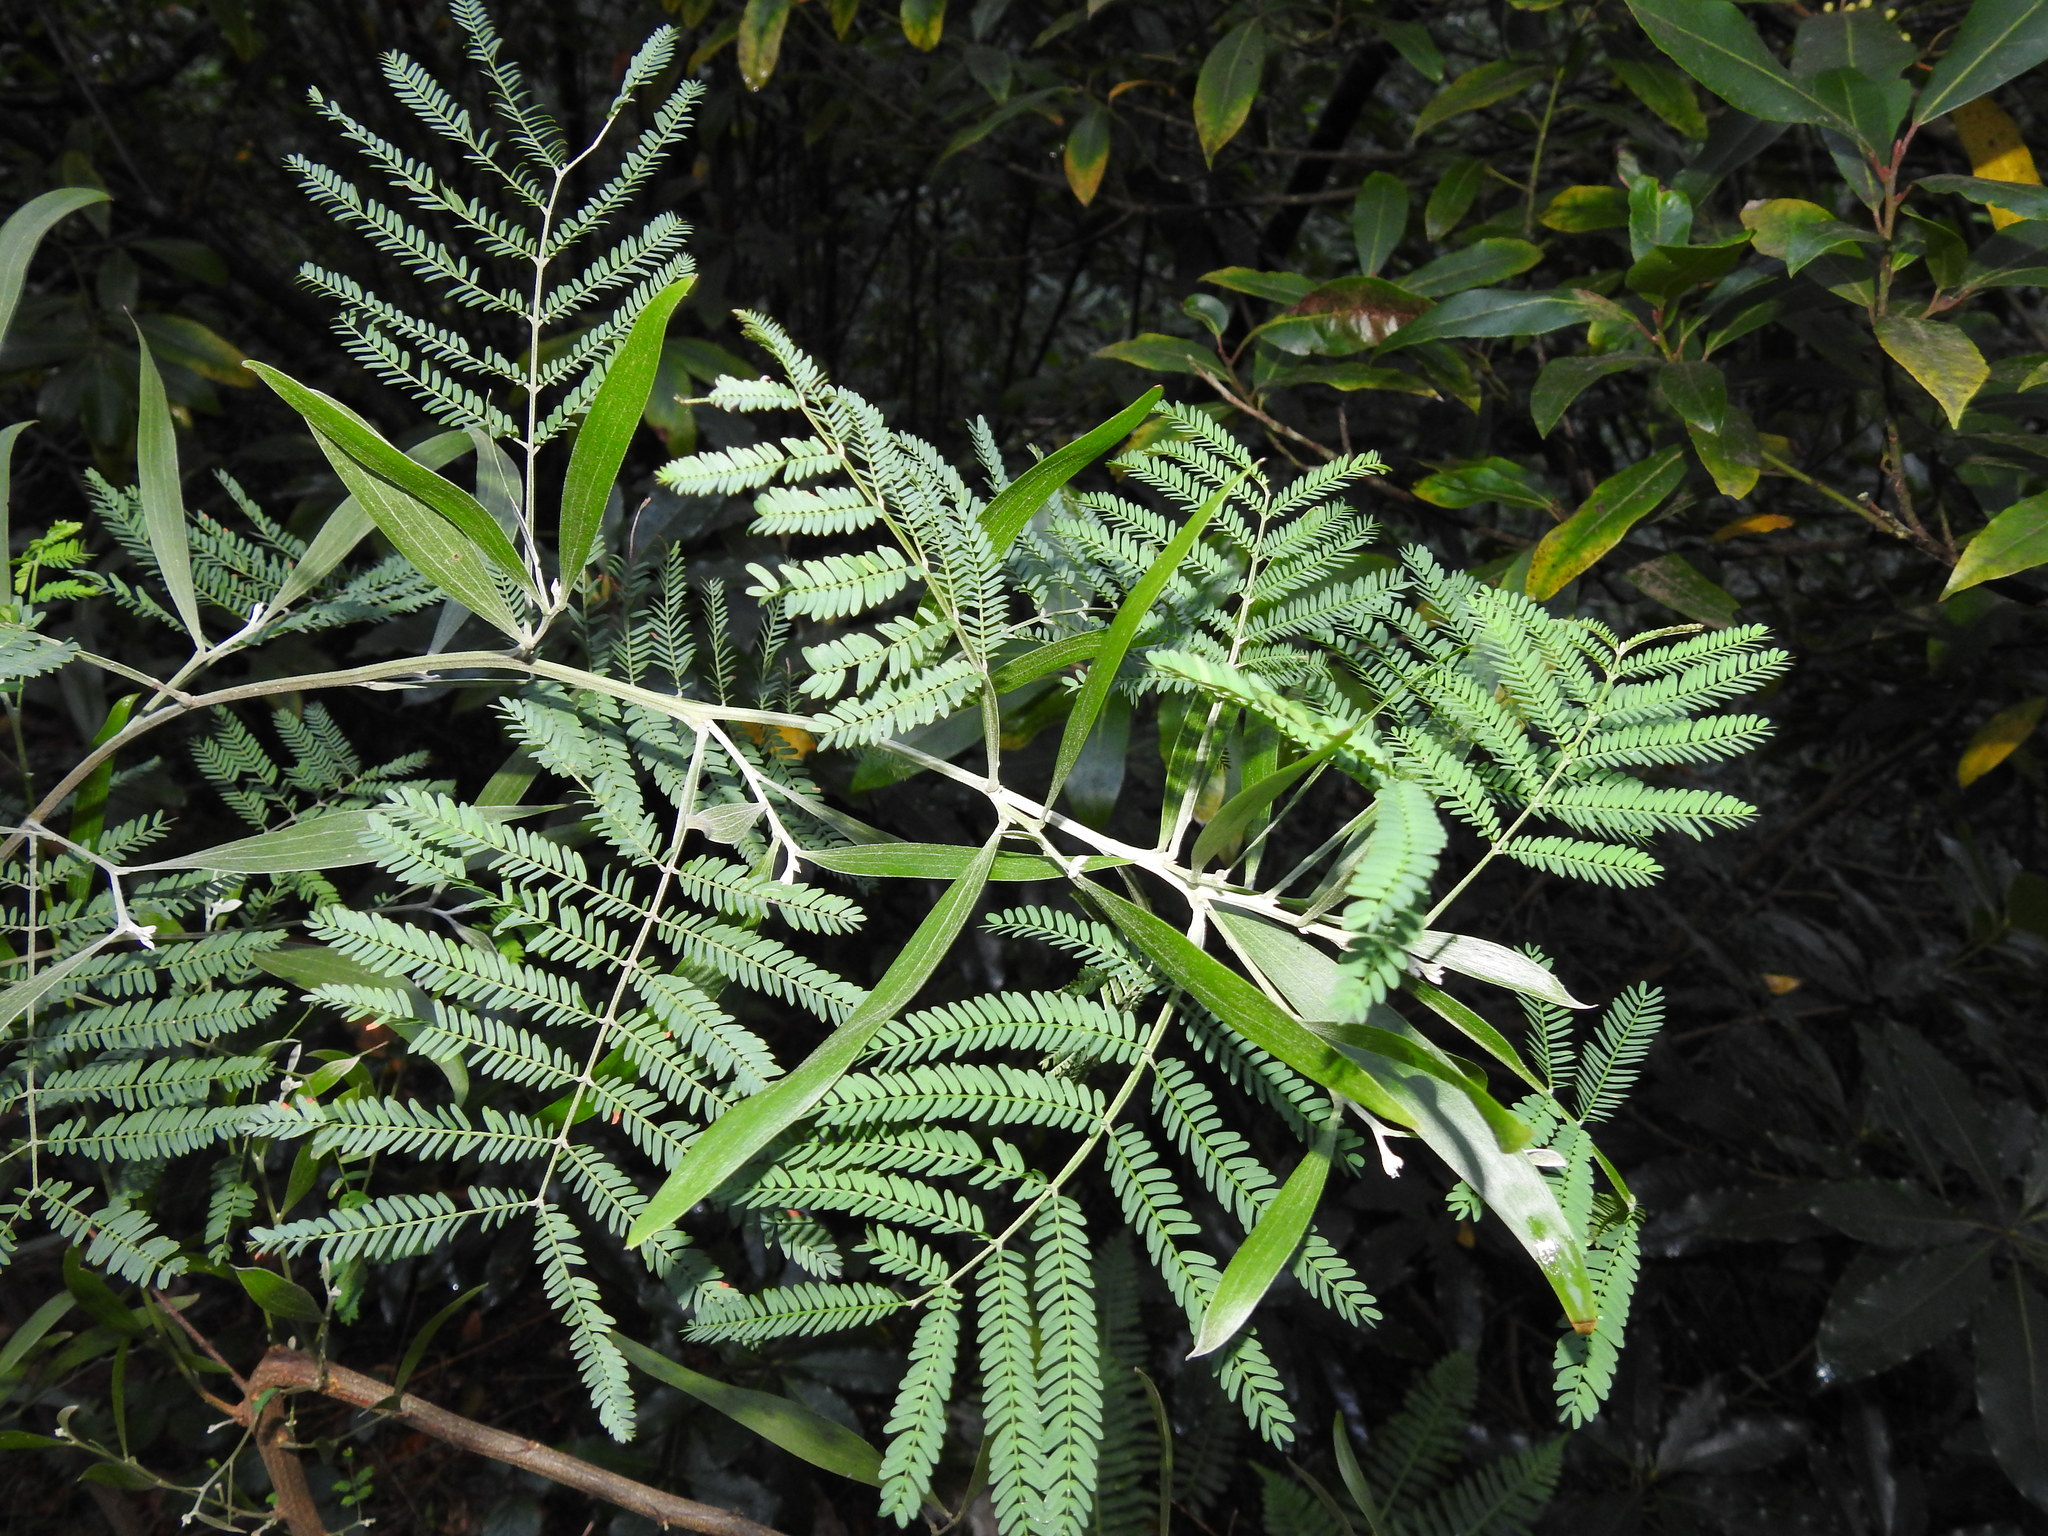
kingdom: Plantae
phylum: Tracheophyta
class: Magnoliopsida
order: Fabales
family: Fabaceae
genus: Acacia
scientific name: Acacia melanoxylon
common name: Blackwood
